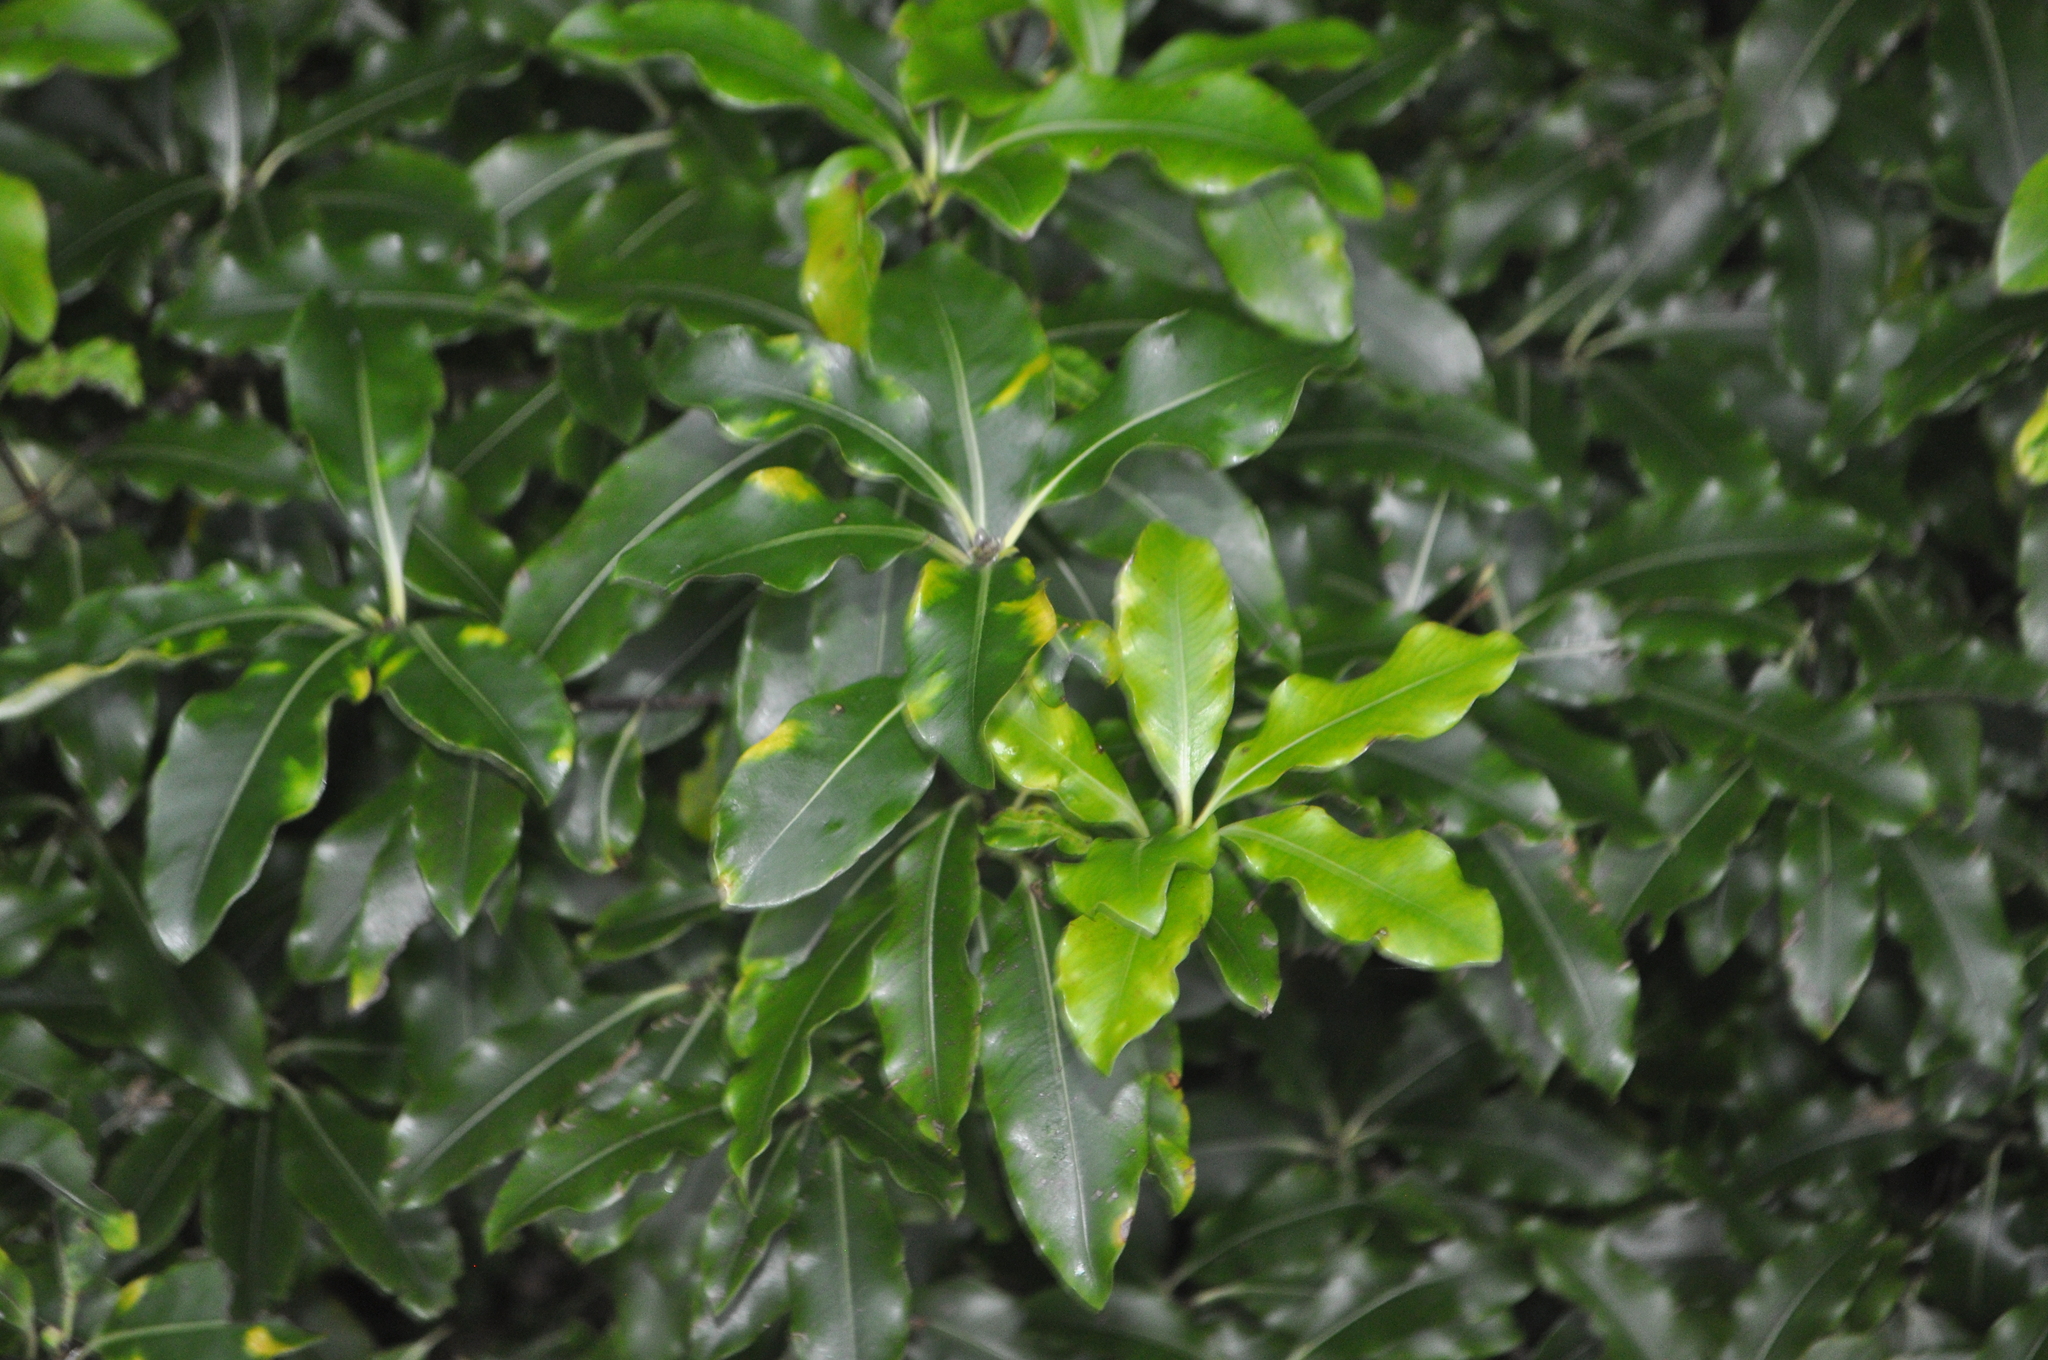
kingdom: Plantae
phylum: Tracheophyta
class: Magnoliopsida
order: Apiales
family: Pittosporaceae
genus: Pittosporum
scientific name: Pittosporum eugenioides
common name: Lemonwood
